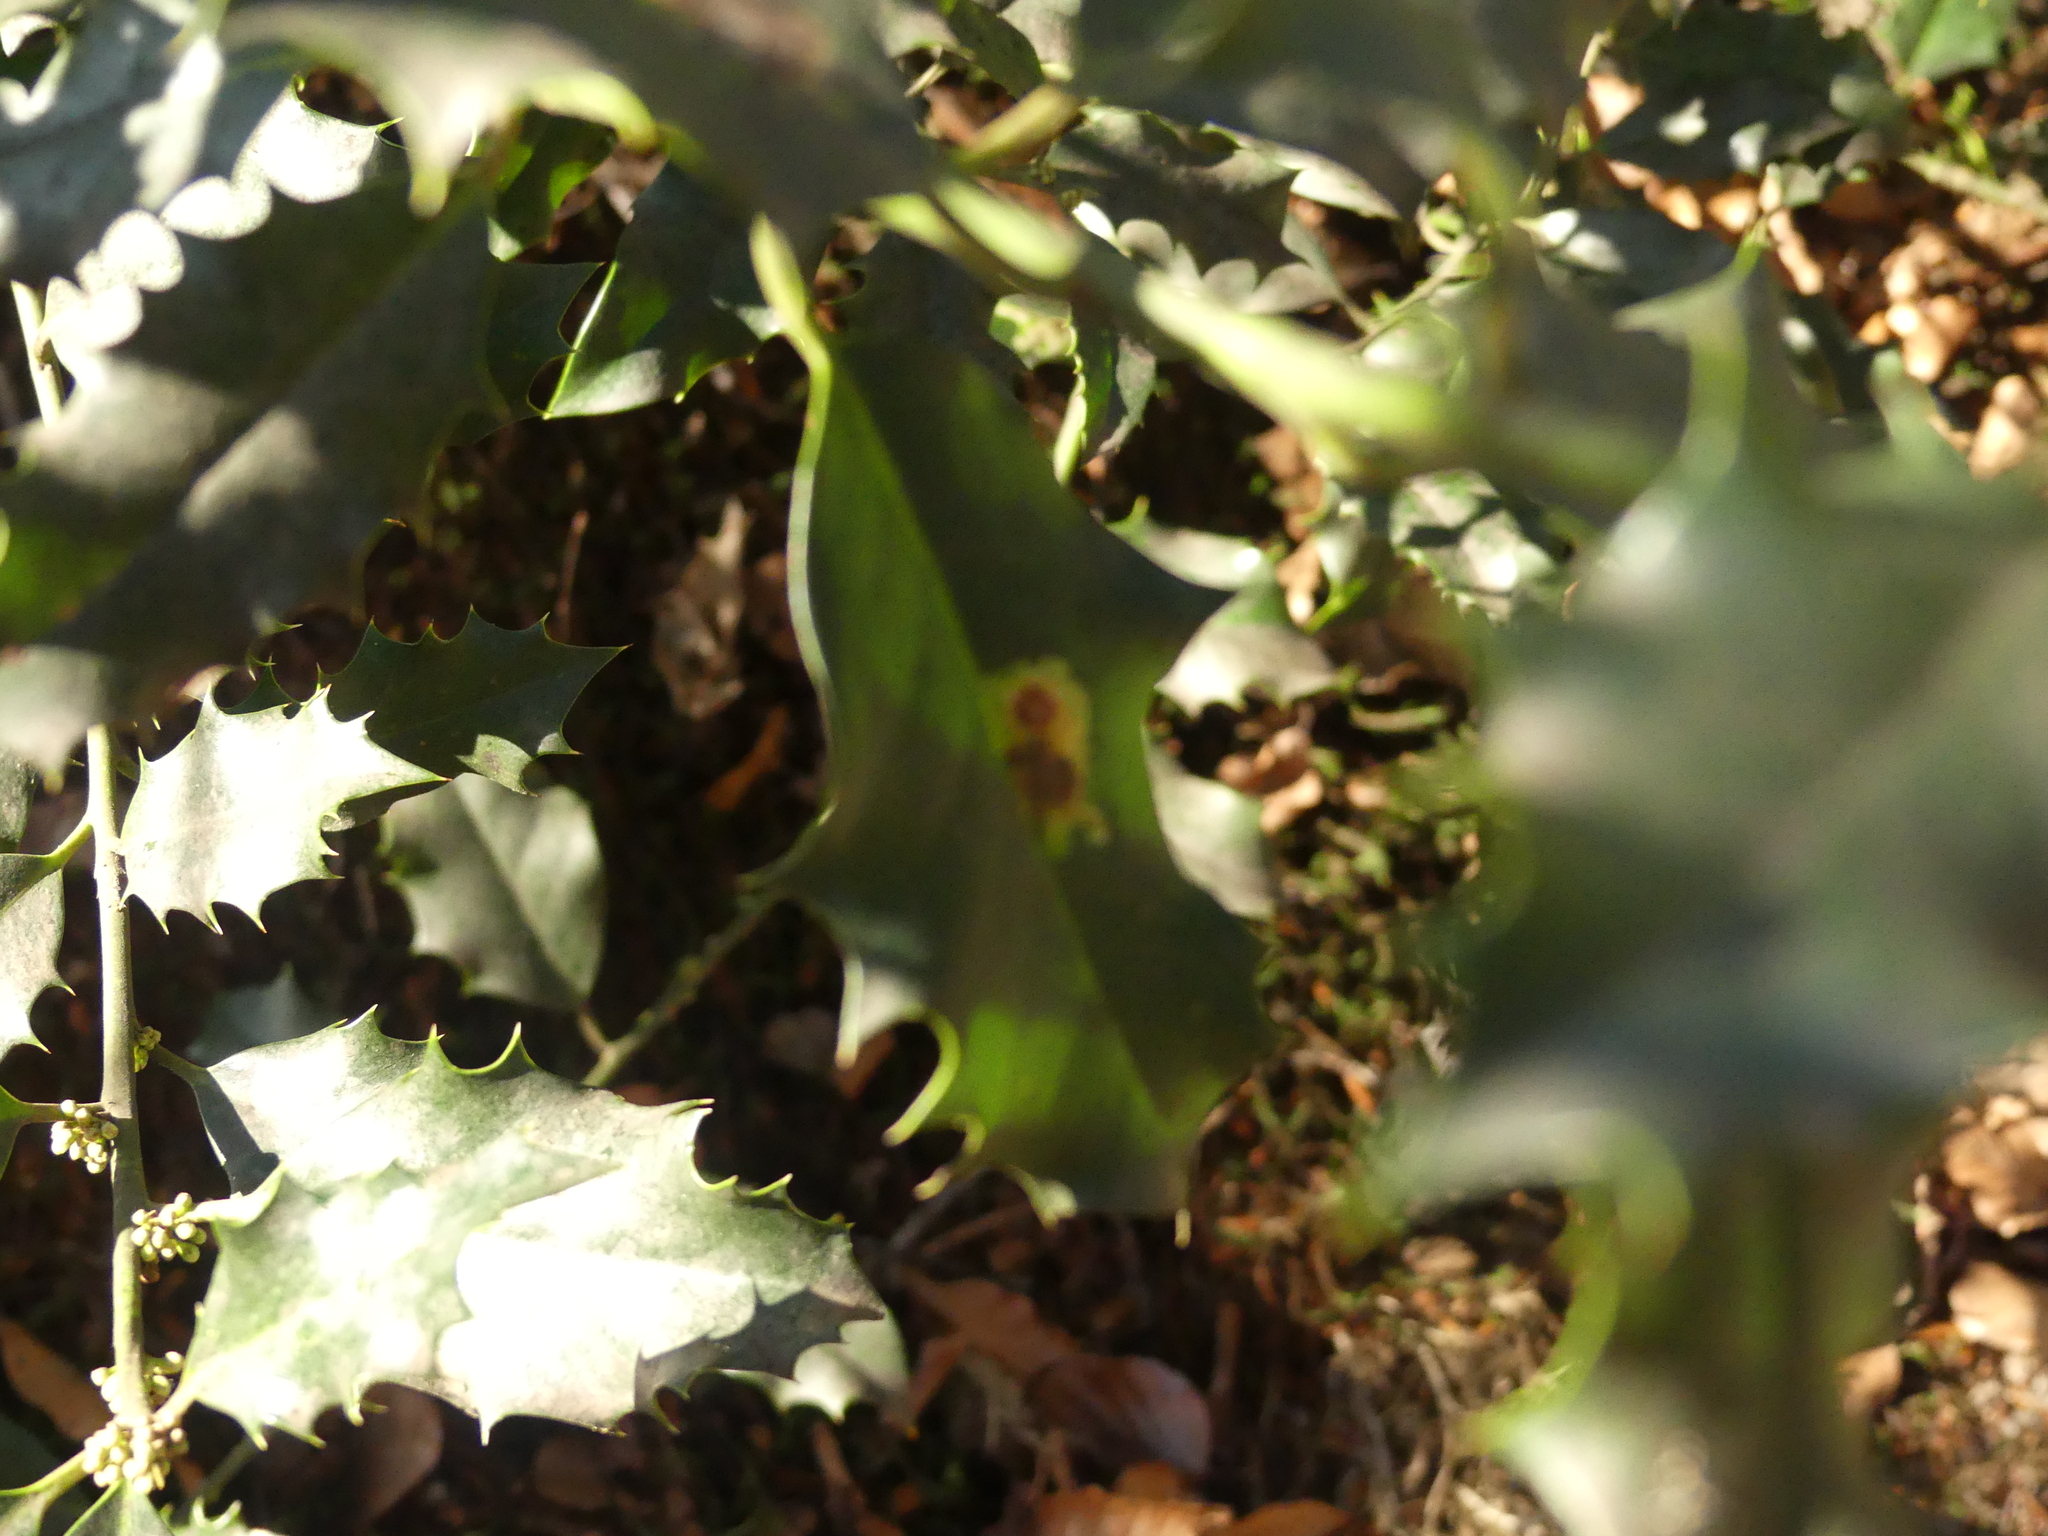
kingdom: Plantae
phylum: Tracheophyta
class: Magnoliopsida
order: Aquifoliales
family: Aquifoliaceae
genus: Ilex
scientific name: Ilex aquifolium
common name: English holly
